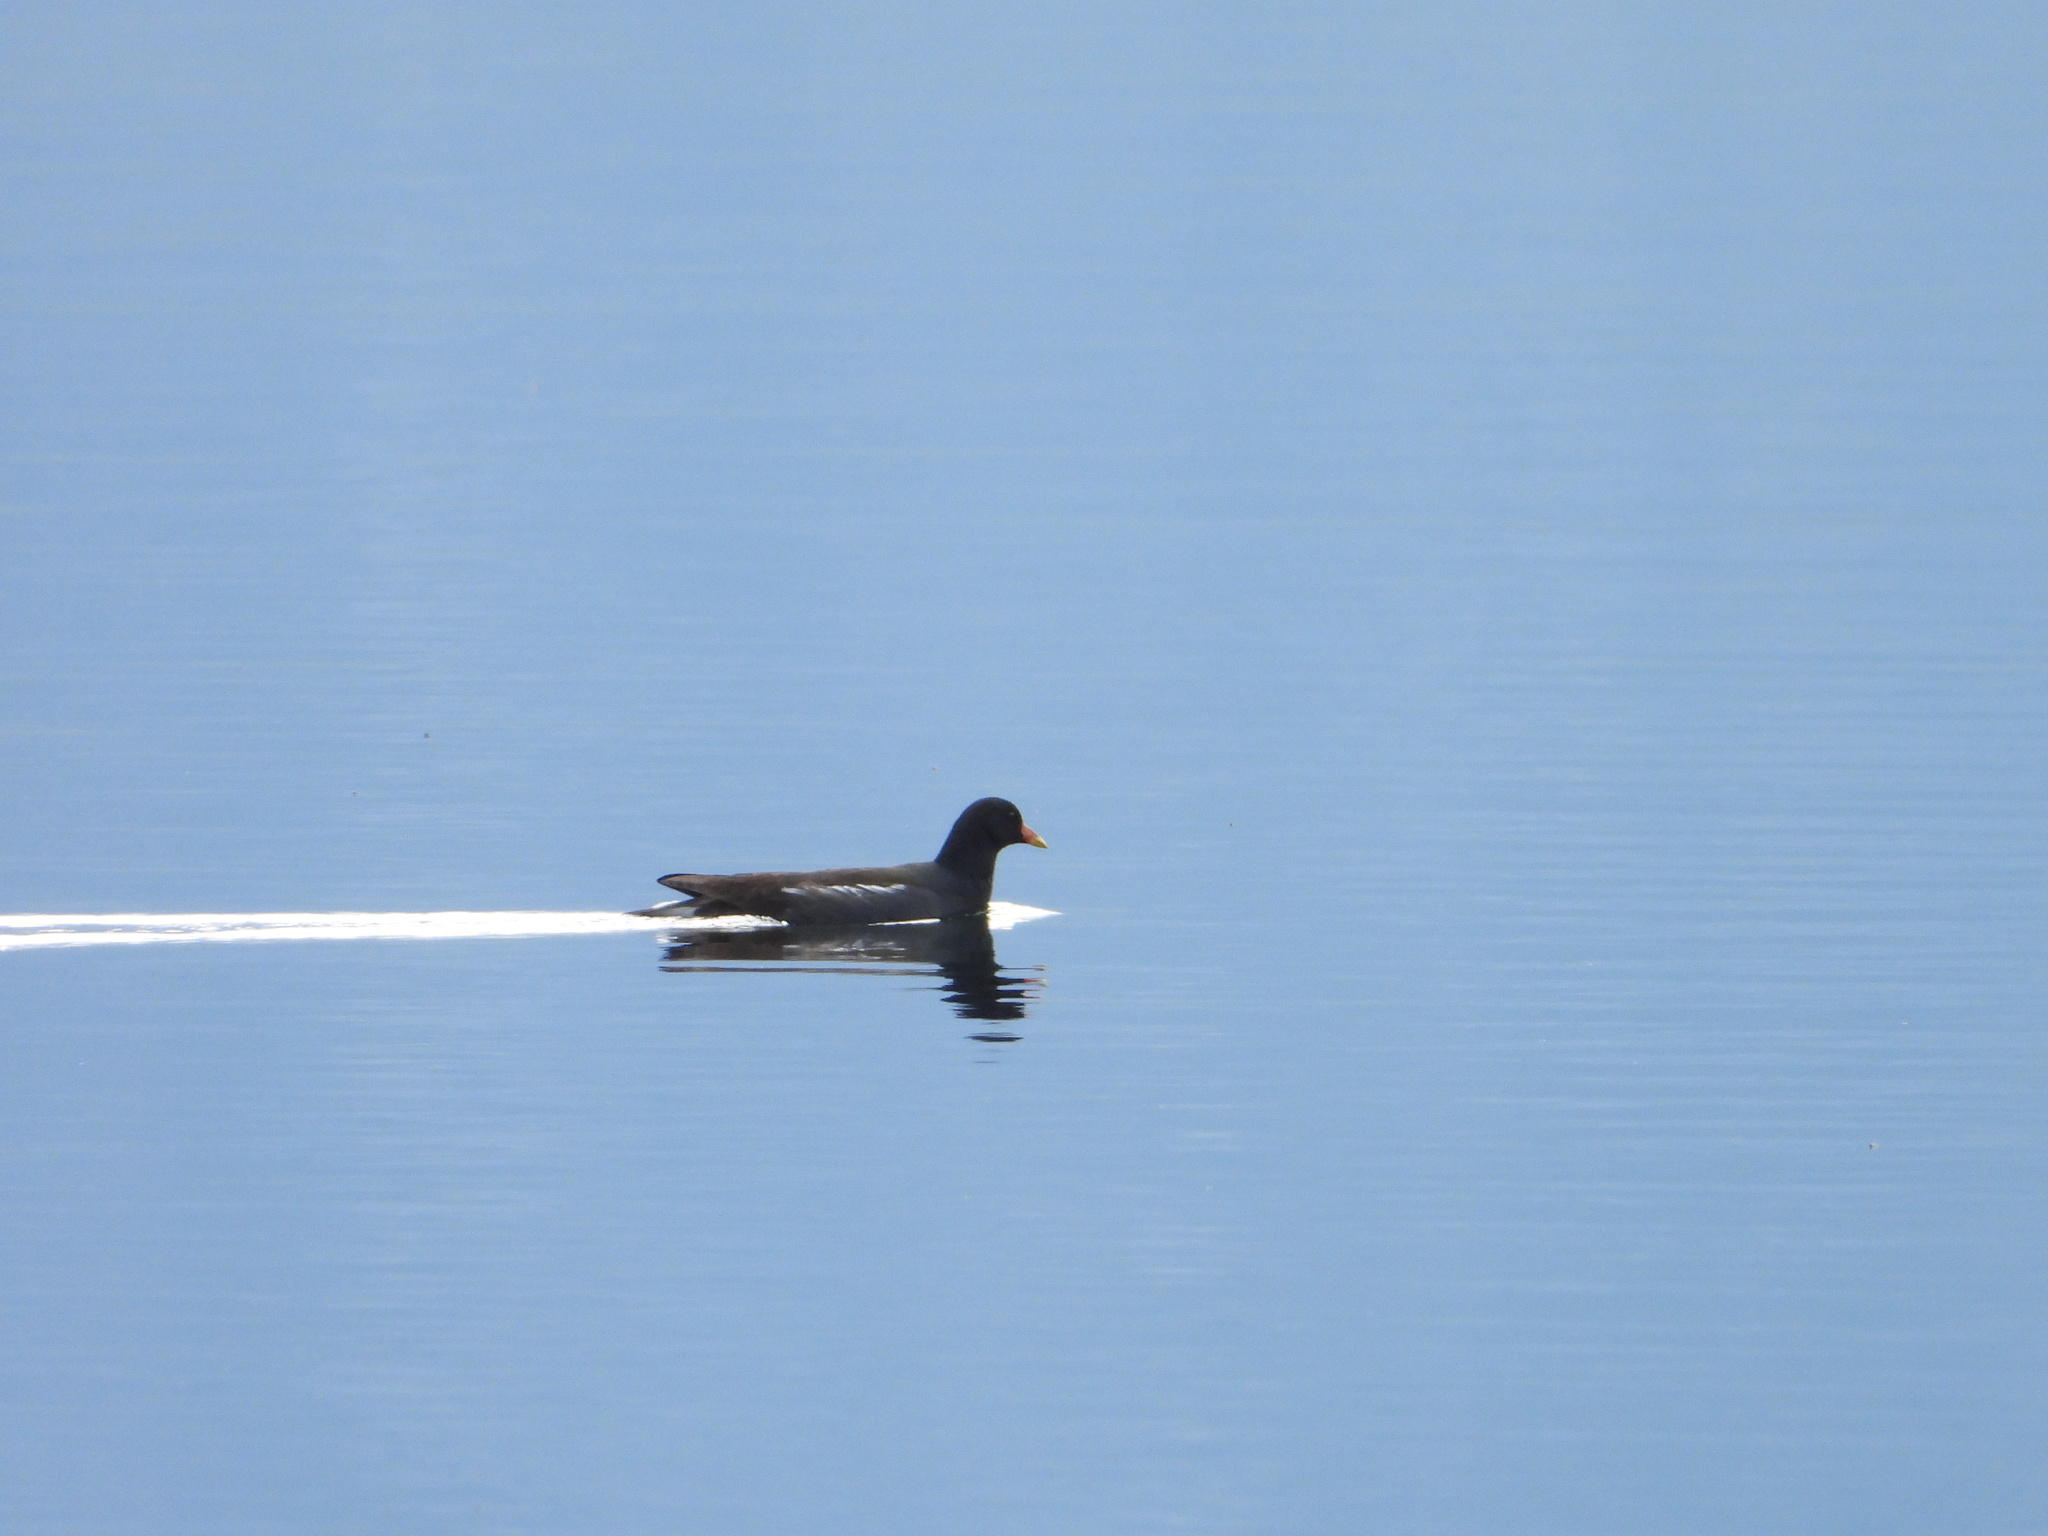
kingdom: Animalia
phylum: Chordata
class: Aves
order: Gruiformes
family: Rallidae
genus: Gallinula
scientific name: Gallinula chloropus
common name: Common moorhen
